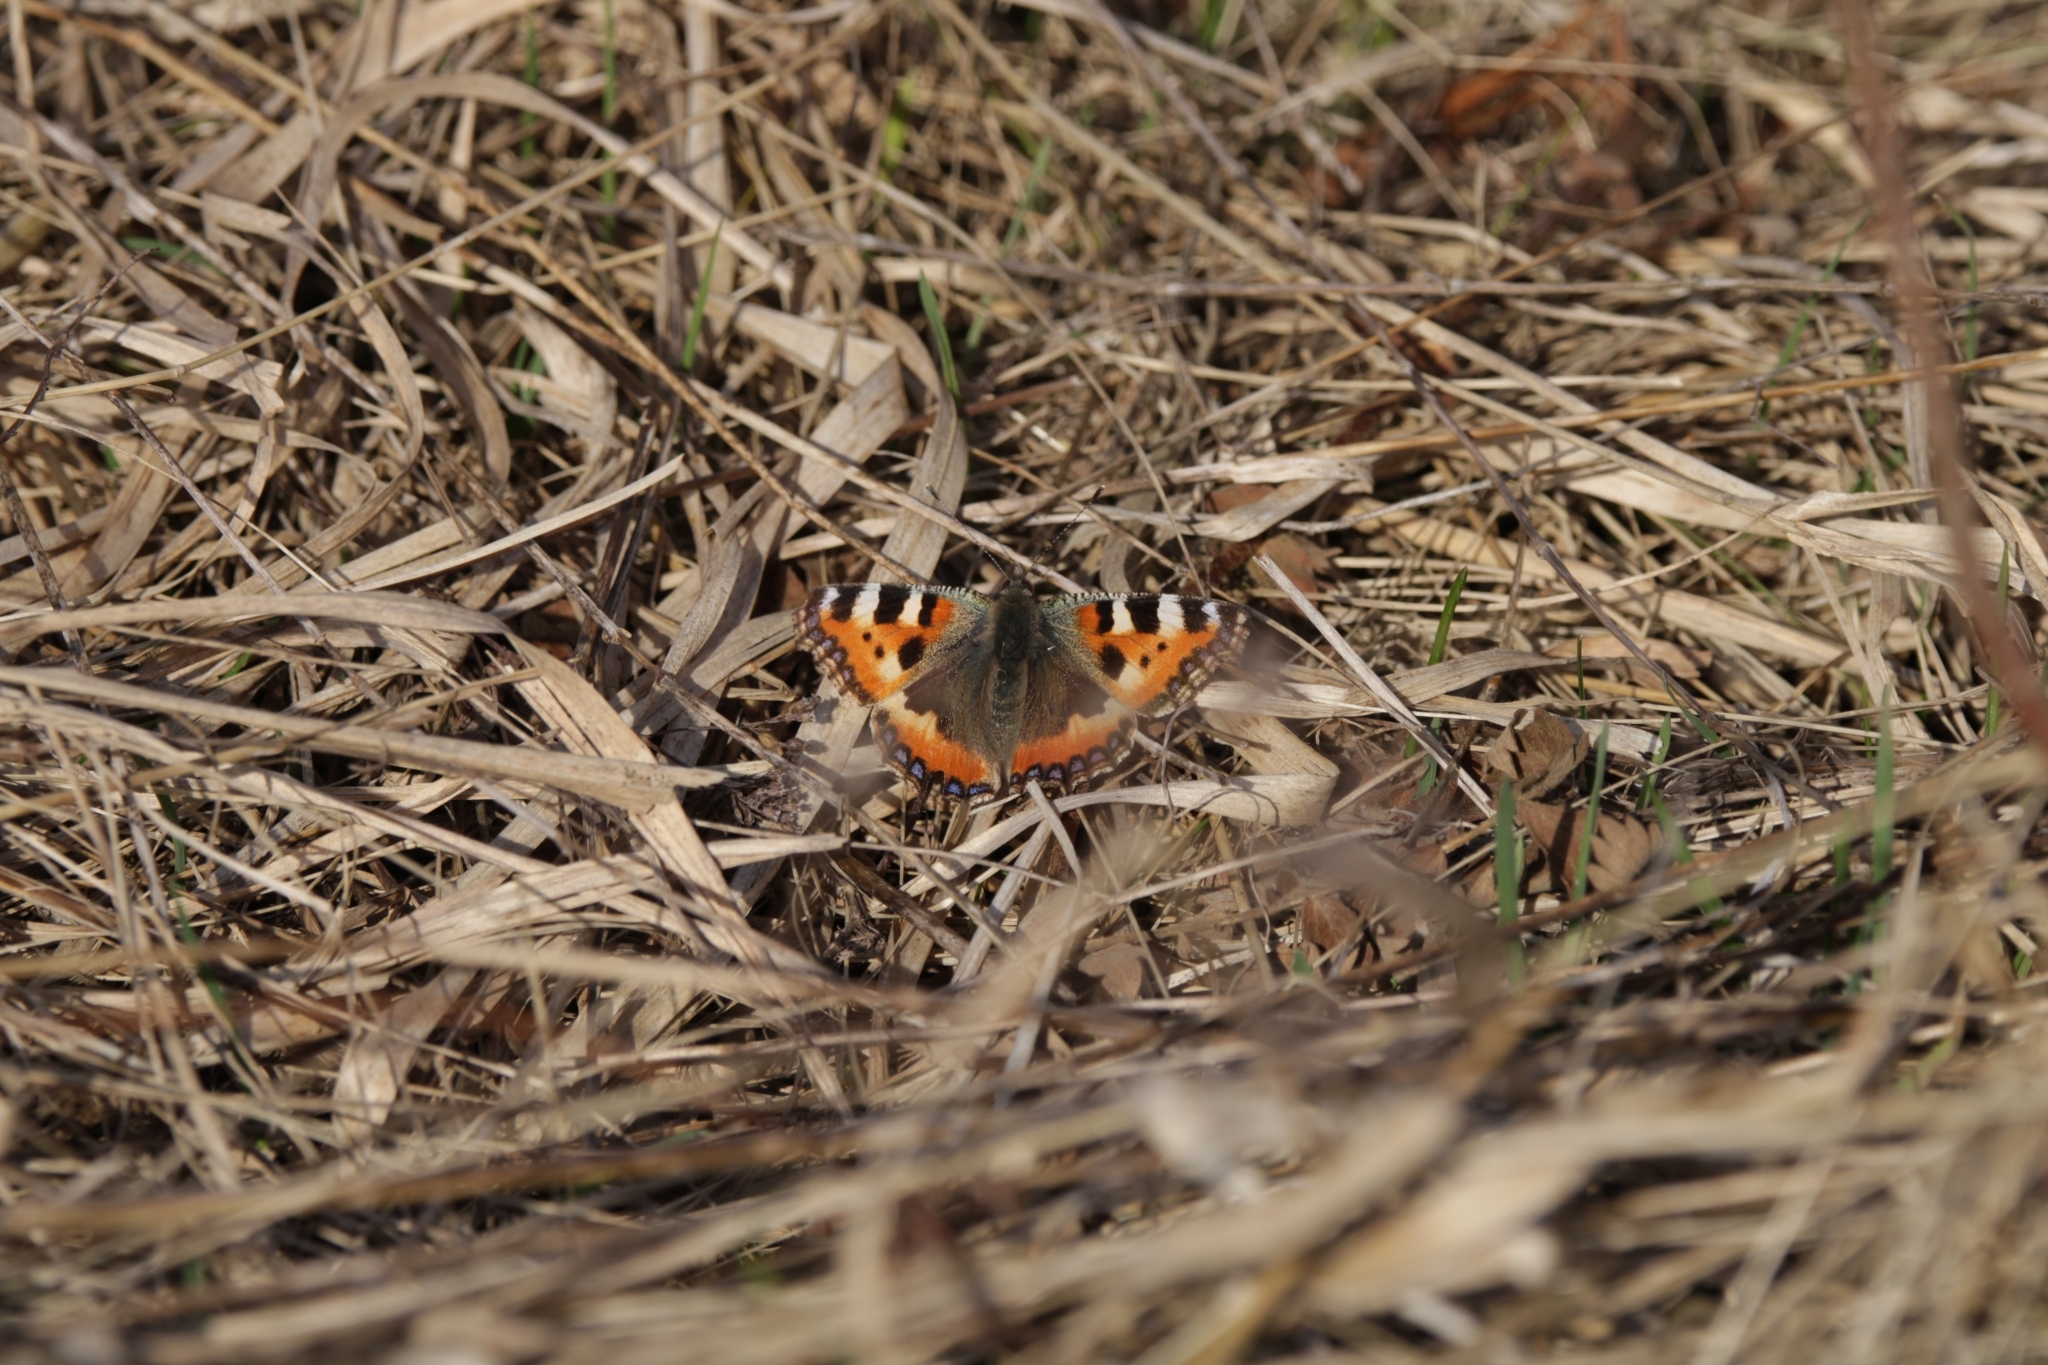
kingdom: Animalia
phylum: Arthropoda
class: Insecta
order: Lepidoptera
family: Nymphalidae
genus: Aglais
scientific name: Aglais urticae
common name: Small tortoiseshell
